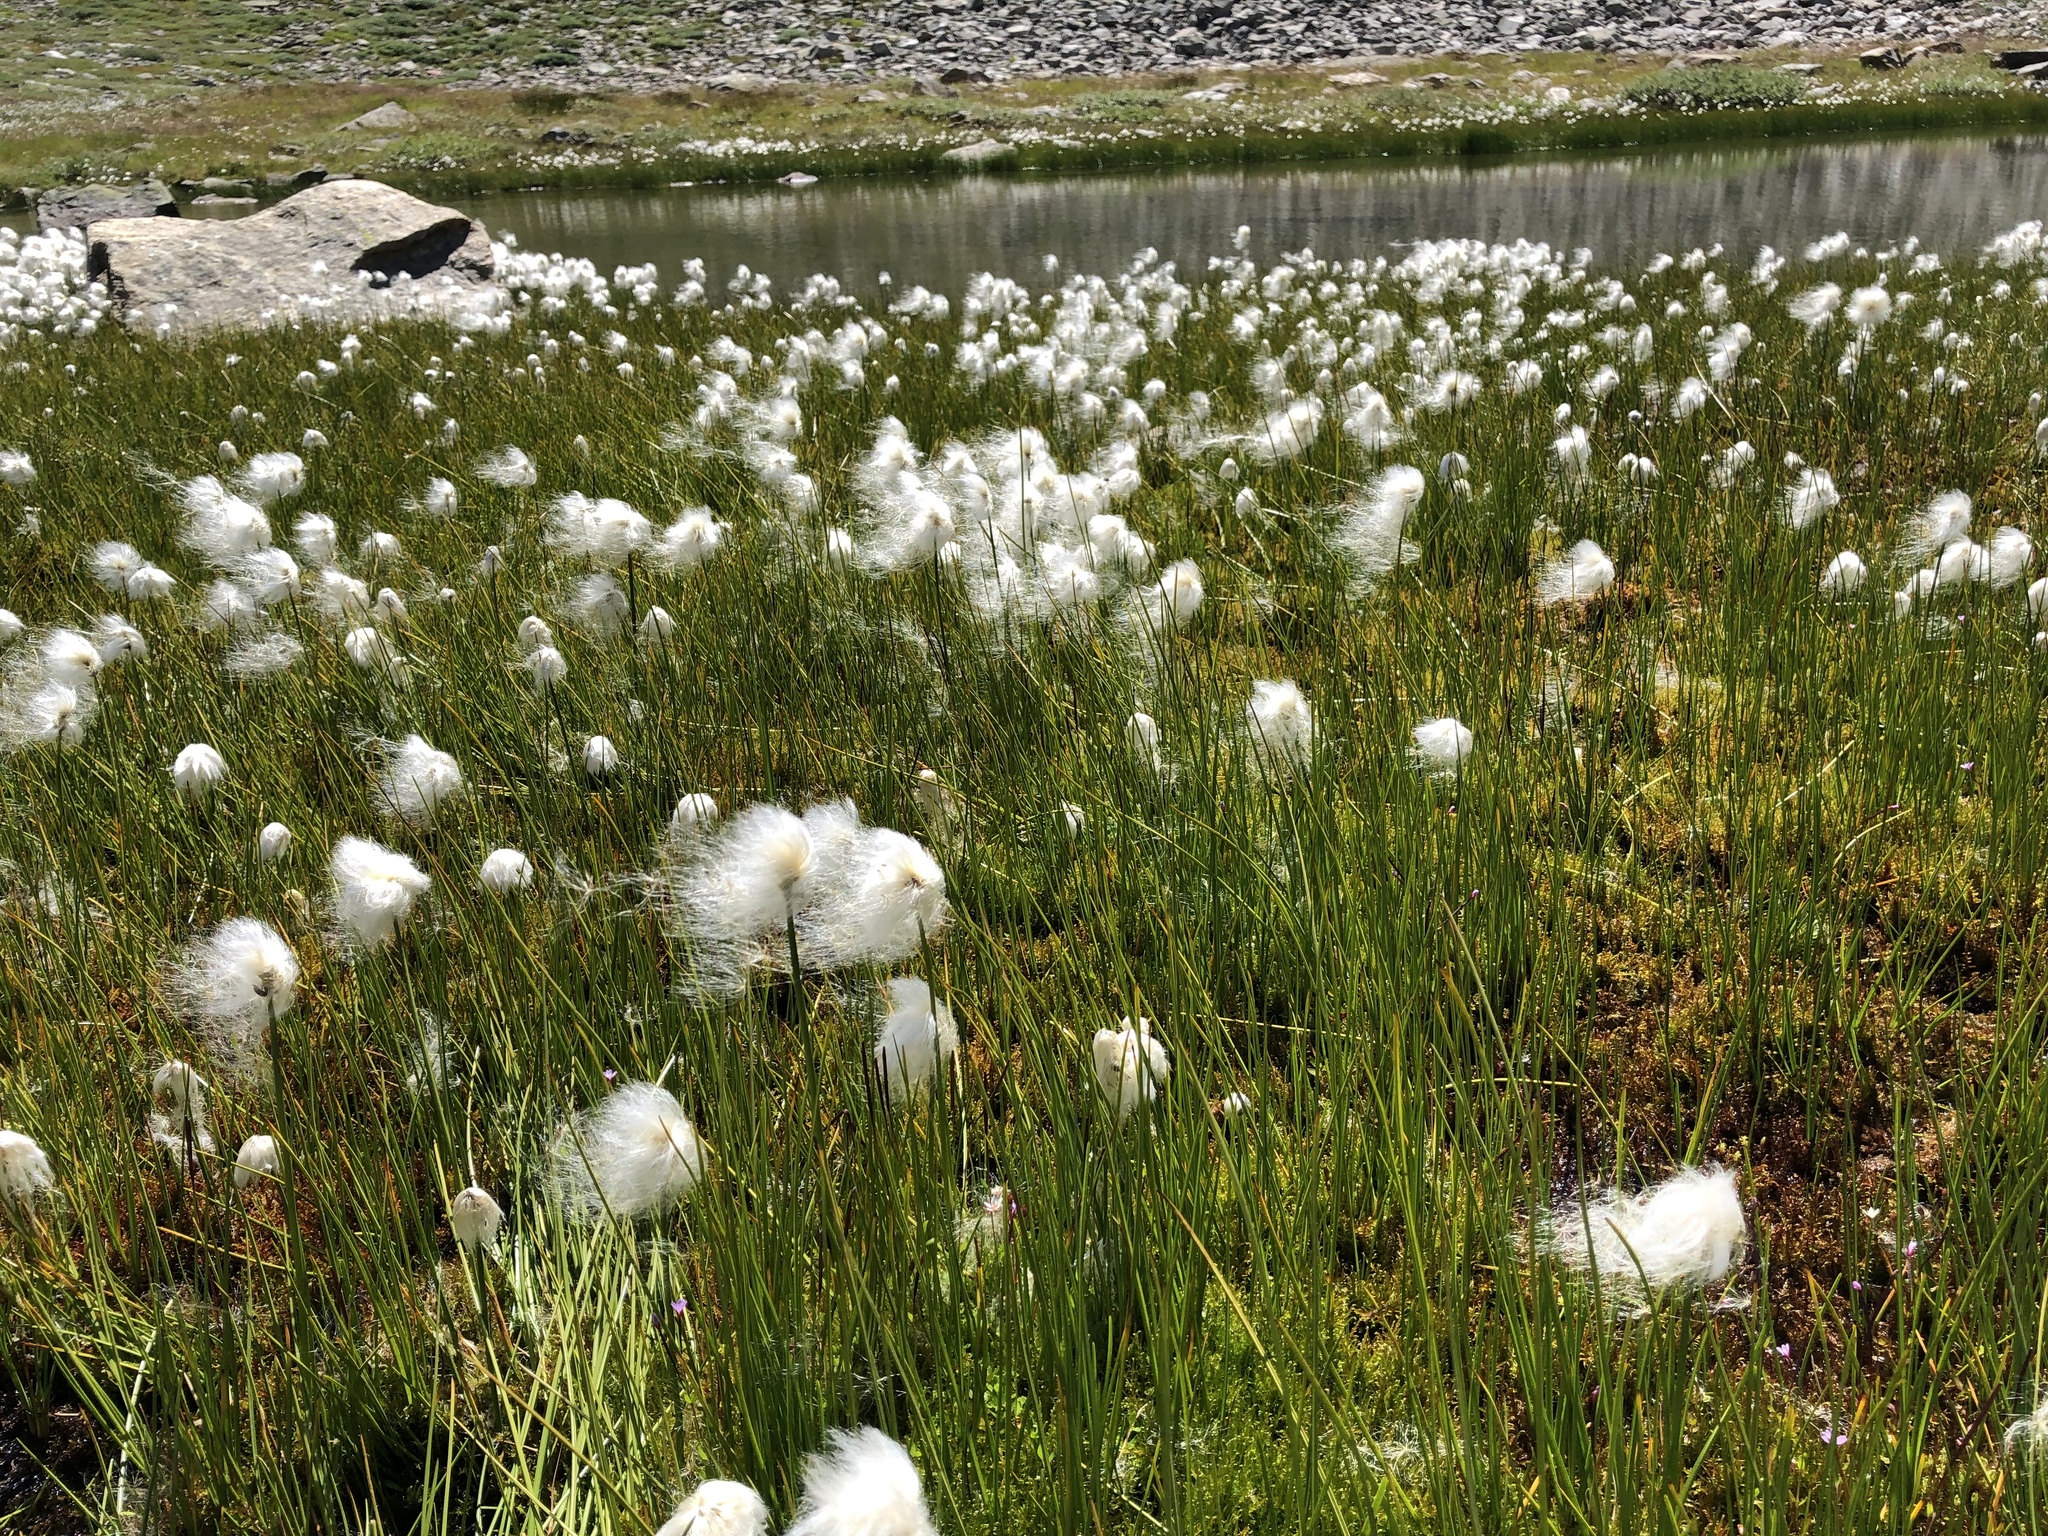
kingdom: Plantae
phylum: Tracheophyta
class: Liliopsida
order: Poales
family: Cyperaceae
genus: Eriophorum
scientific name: Eriophorum scheuchzeri
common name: Scheuchzer's cottongrass
